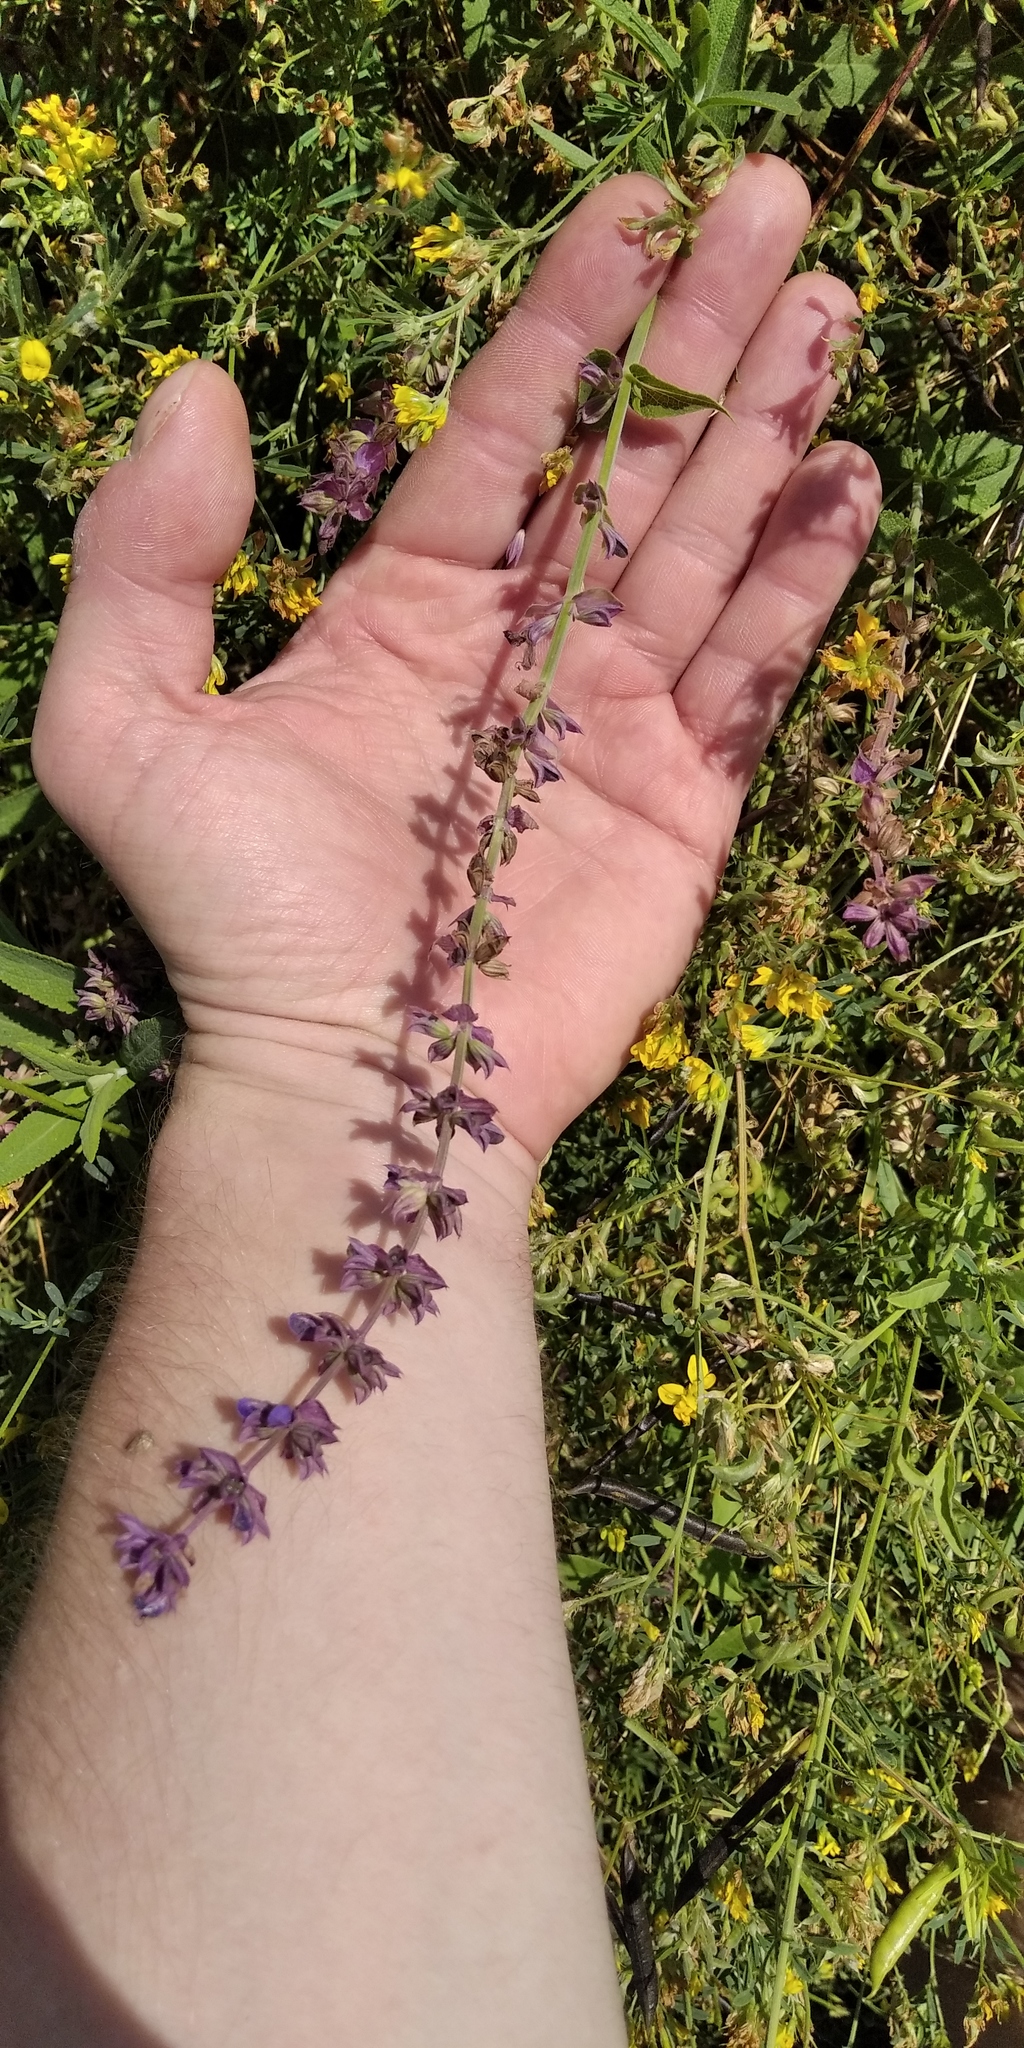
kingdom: Plantae
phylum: Tracheophyta
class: Magnoliopsida
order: Lamiales
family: Lamiaceae
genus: Salvia
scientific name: Salvia nemorosa
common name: Balkan clary
